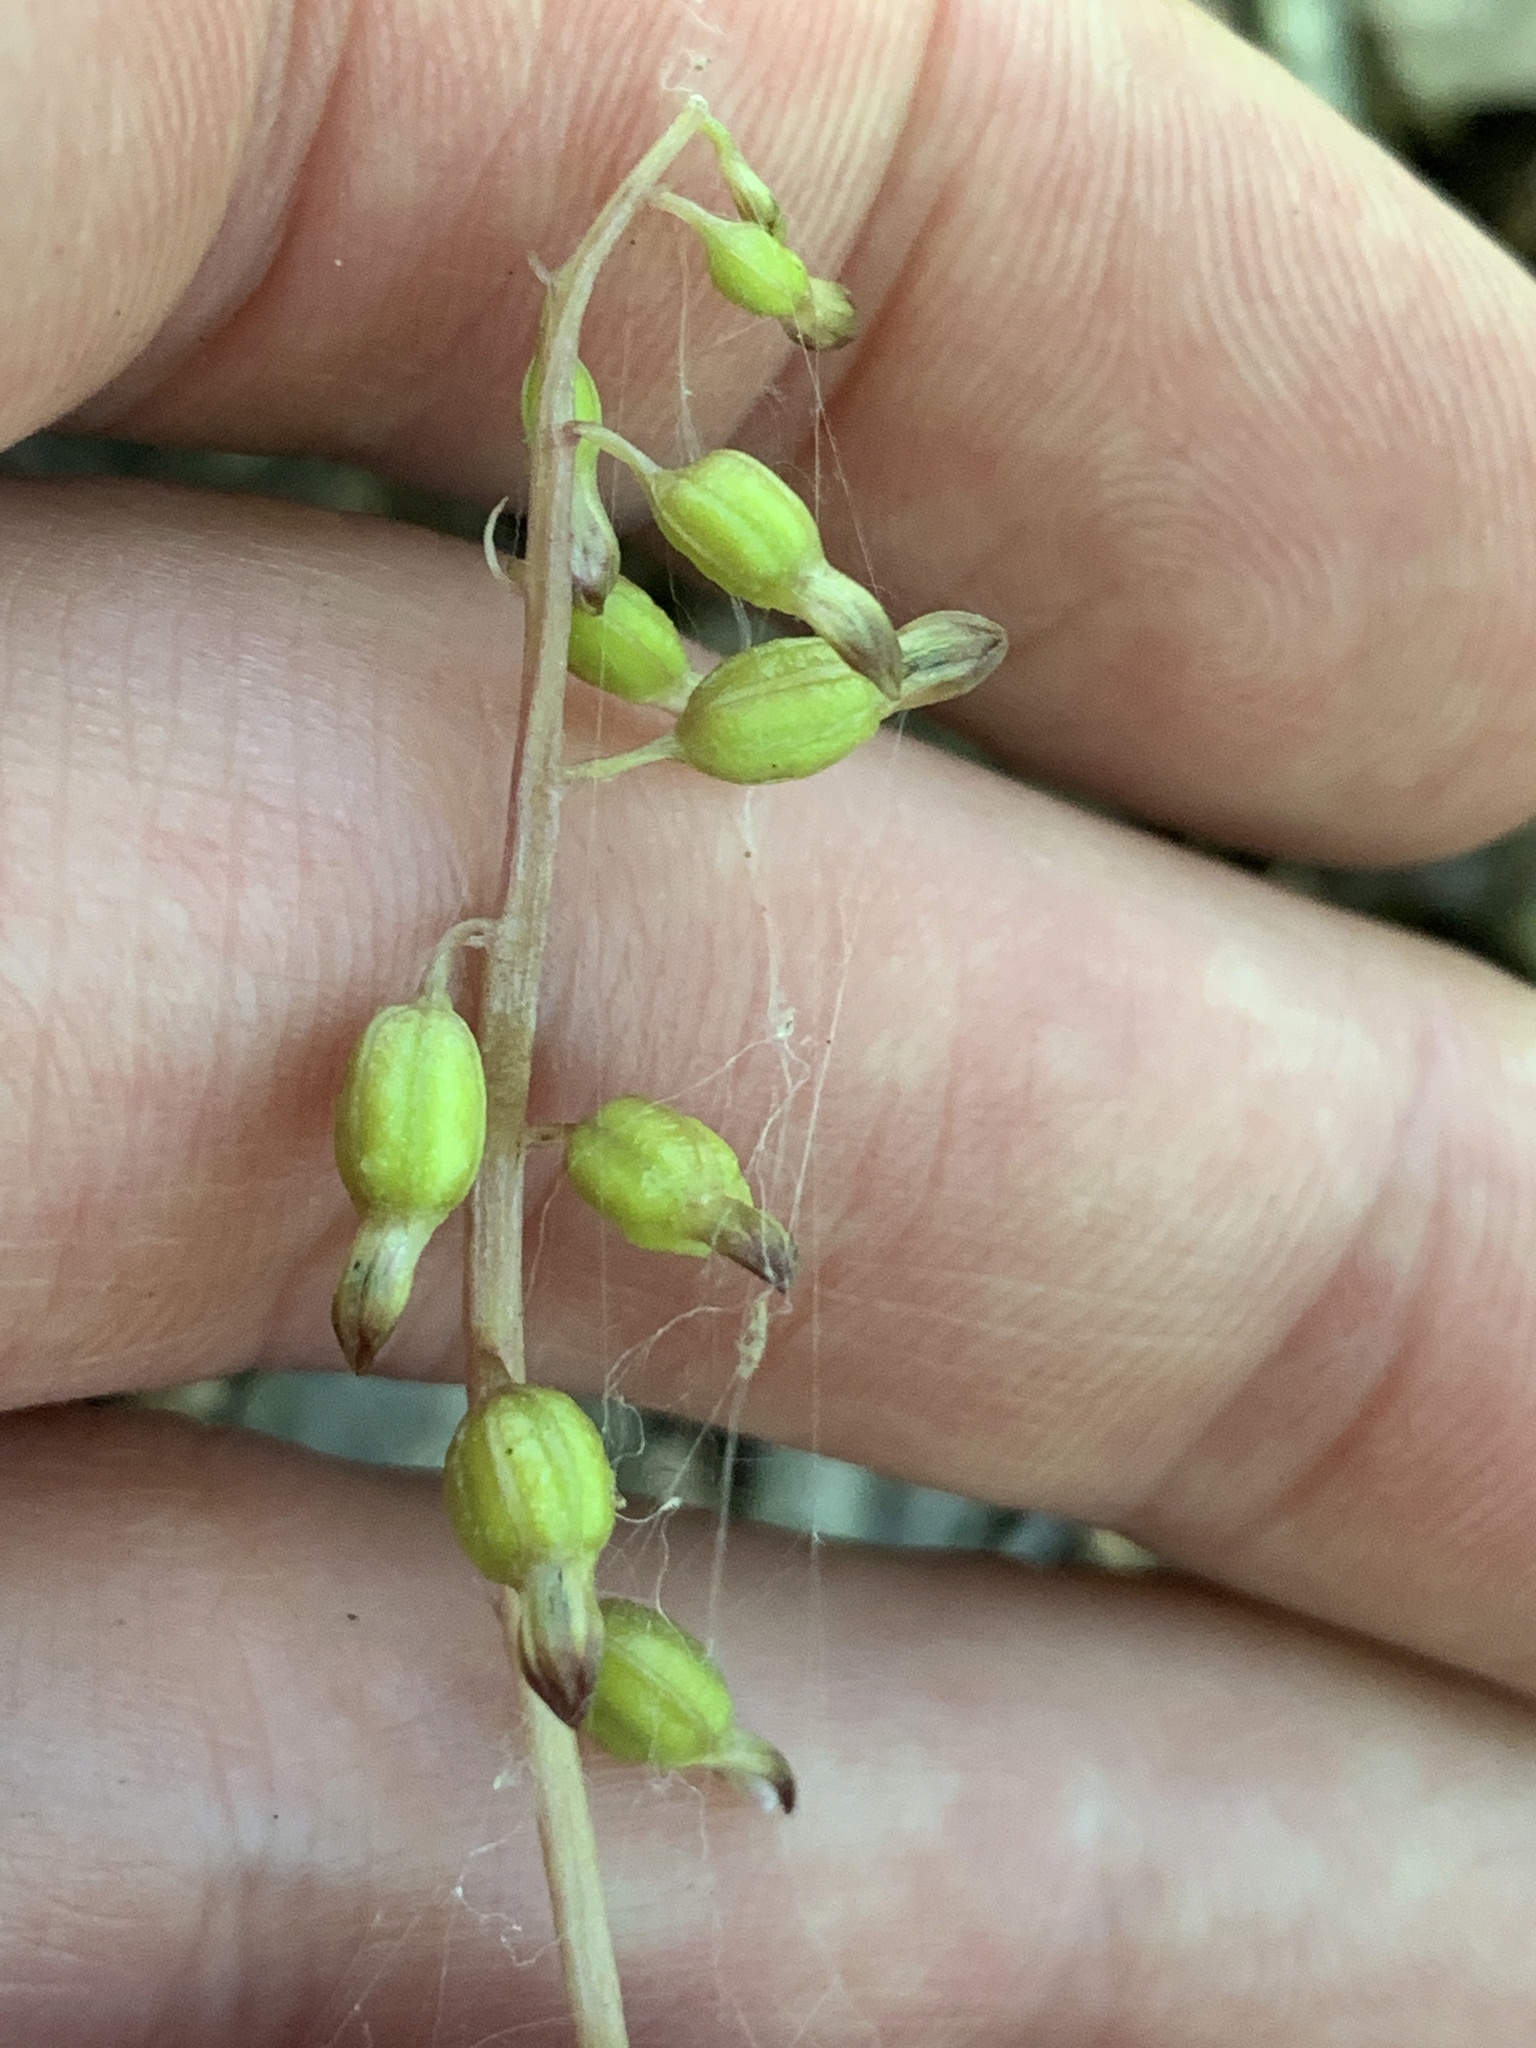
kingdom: Plantae
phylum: Tracheophyta
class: Liliopsida
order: Asparagales
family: Orchidaceae
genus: Corallorhiza
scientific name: Corallorhiza odontorhiza
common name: Autumn coralroot
